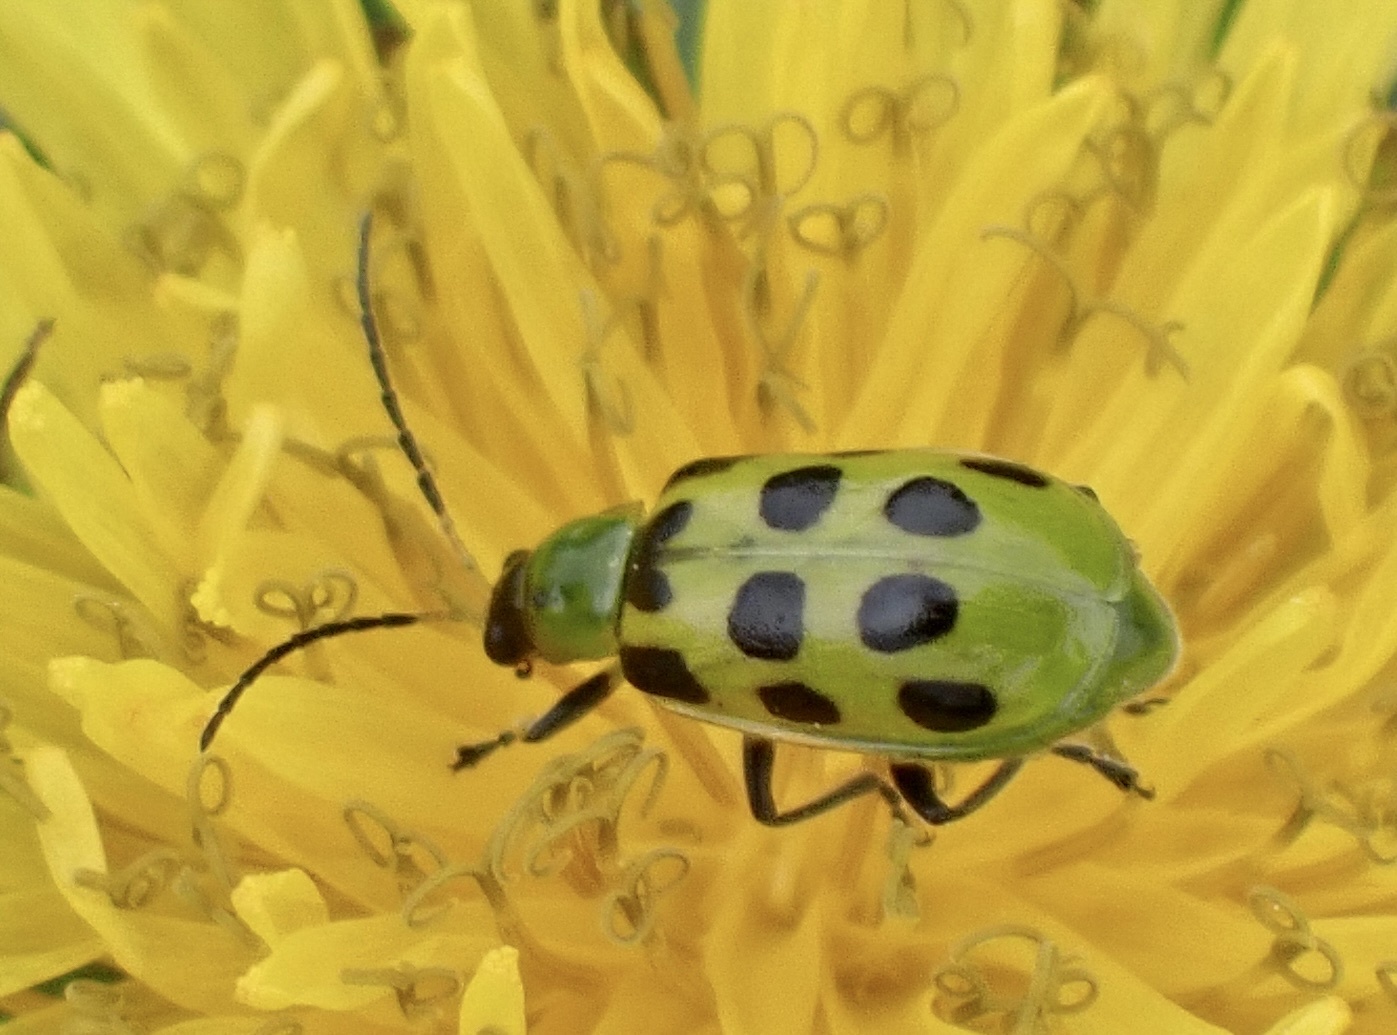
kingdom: Animalia
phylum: Arthropoda
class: Insecta
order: Coleoptera
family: Chrysomelidae
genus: Diabrotica
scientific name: Diabrotica undecimpunctata
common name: Spotted cucumber beetle
